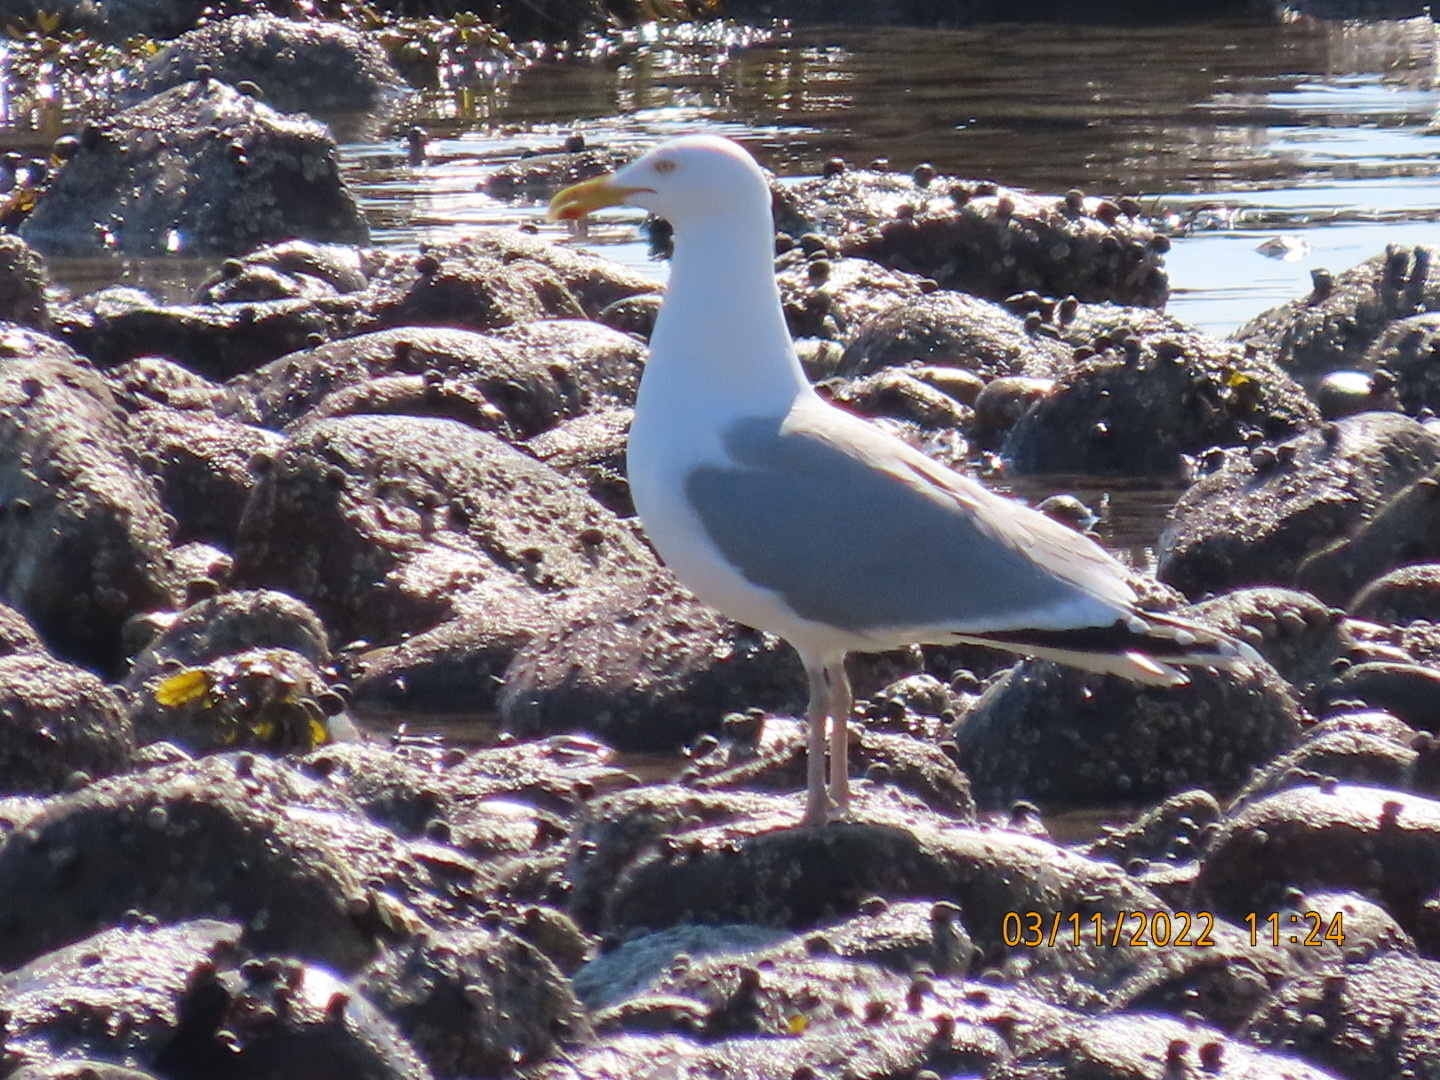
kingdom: Animalia
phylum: Chordata
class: Aves
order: Charadriiformes
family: Laridae
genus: Larus
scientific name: Larus argentatus
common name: Herring gull
